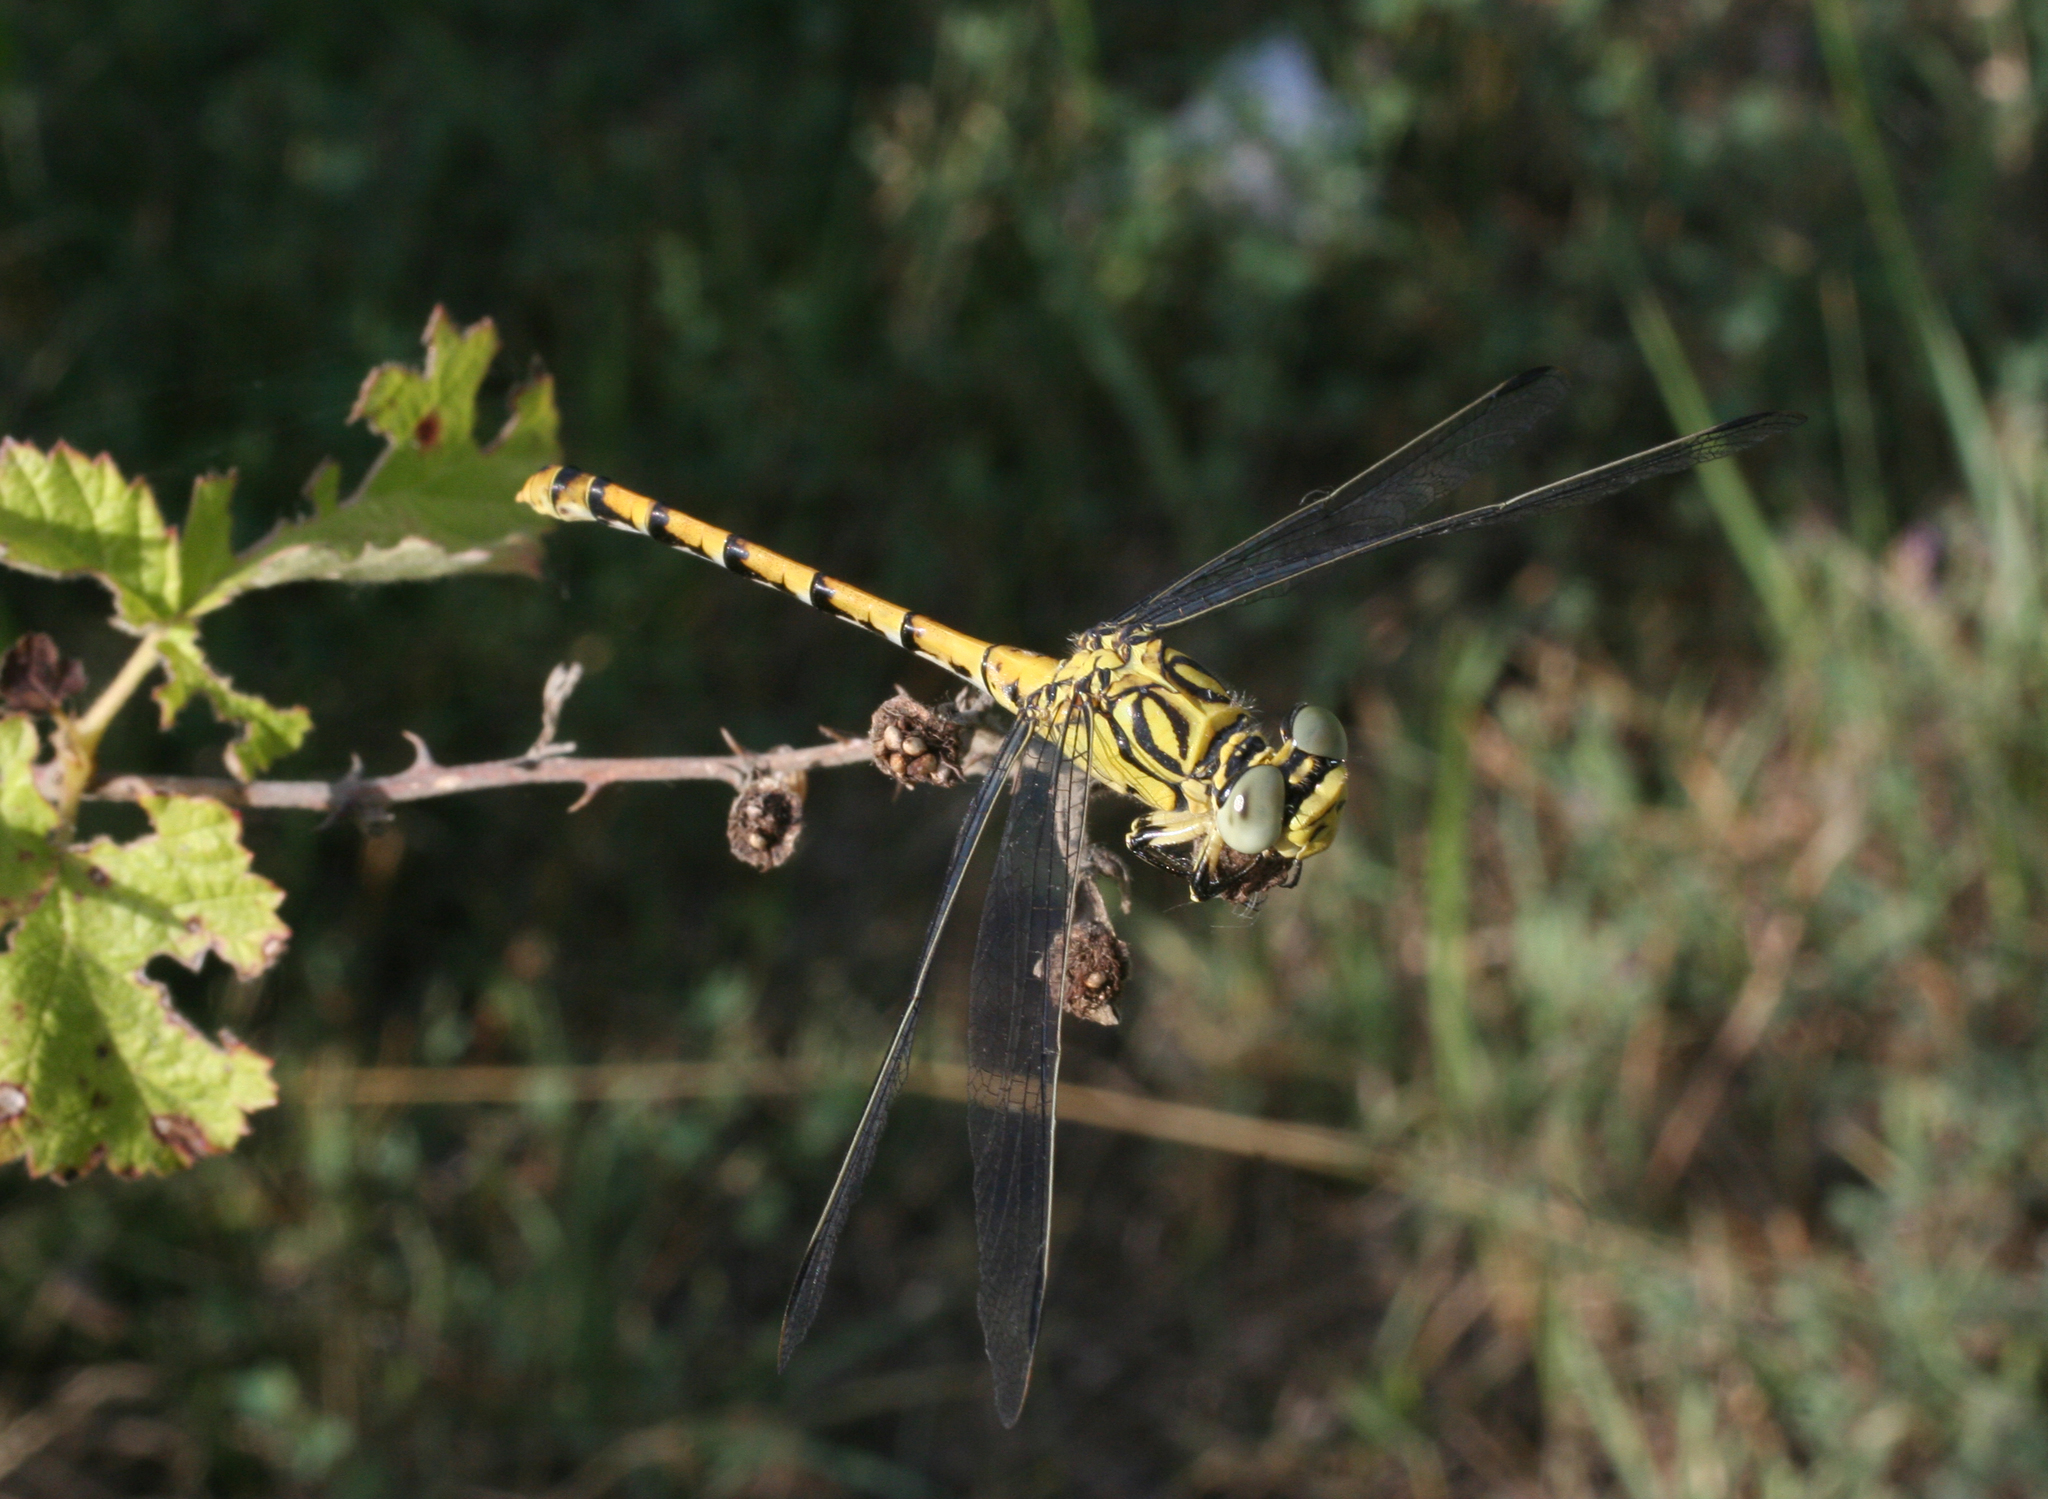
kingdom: Animalia
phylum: Arthropoda
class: Insecta
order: Odonata
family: Gomphidae
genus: Onychogomphus
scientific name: Onychogomphus forcipatus
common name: Small pincertail
